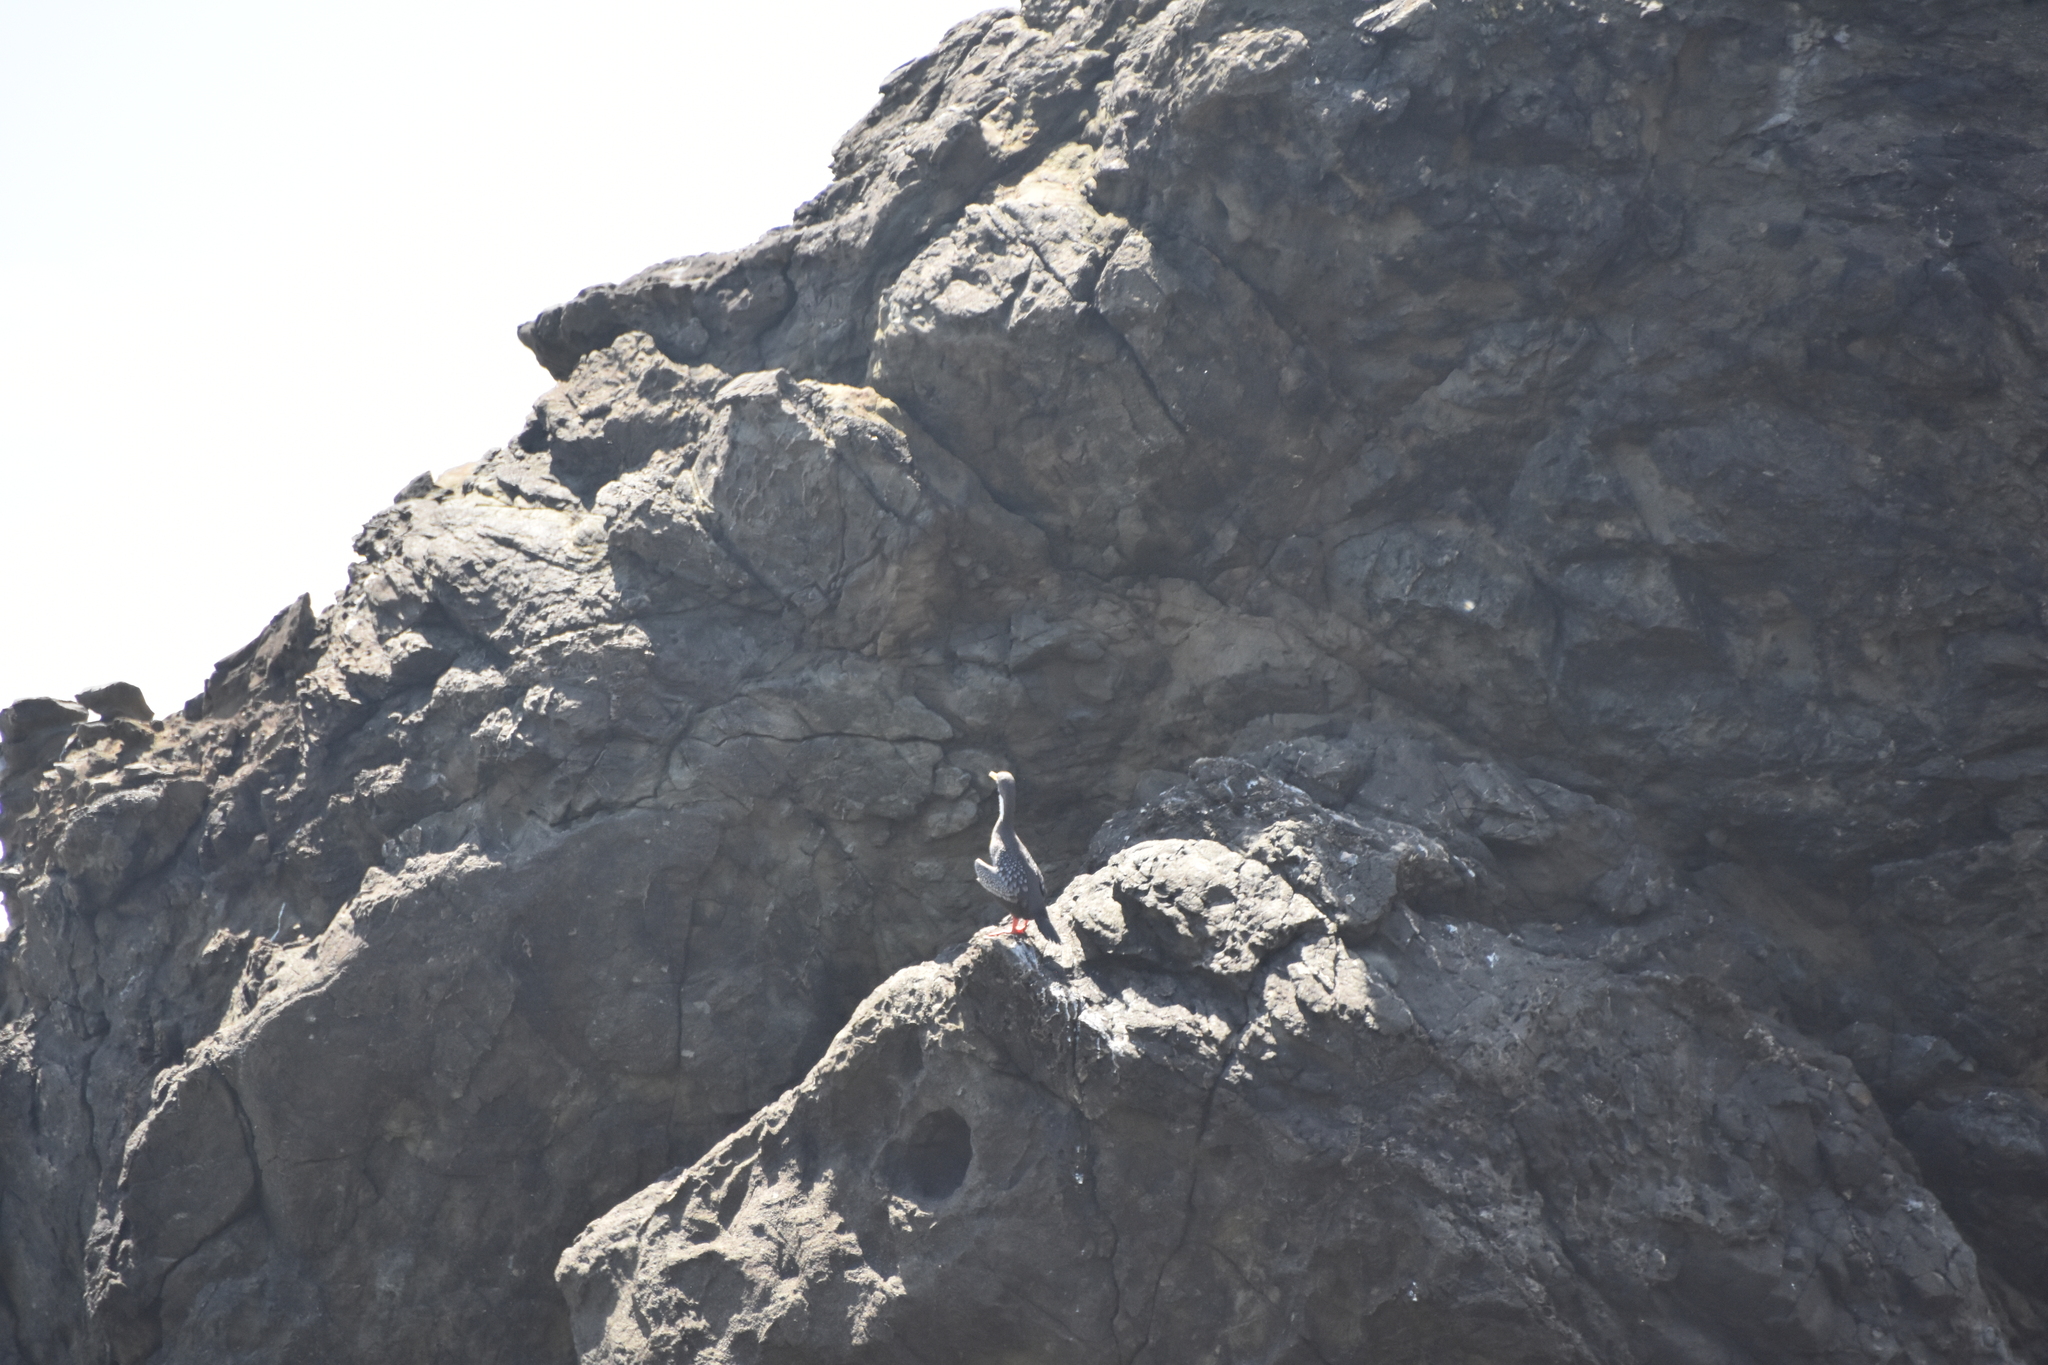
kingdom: Animalia
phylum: Chordata
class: Aves
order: Suliformes
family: Phalacrocoracidae
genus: Phalacrocorax
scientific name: Phalacrocorax gaimardi
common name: Red-legged cormorant
